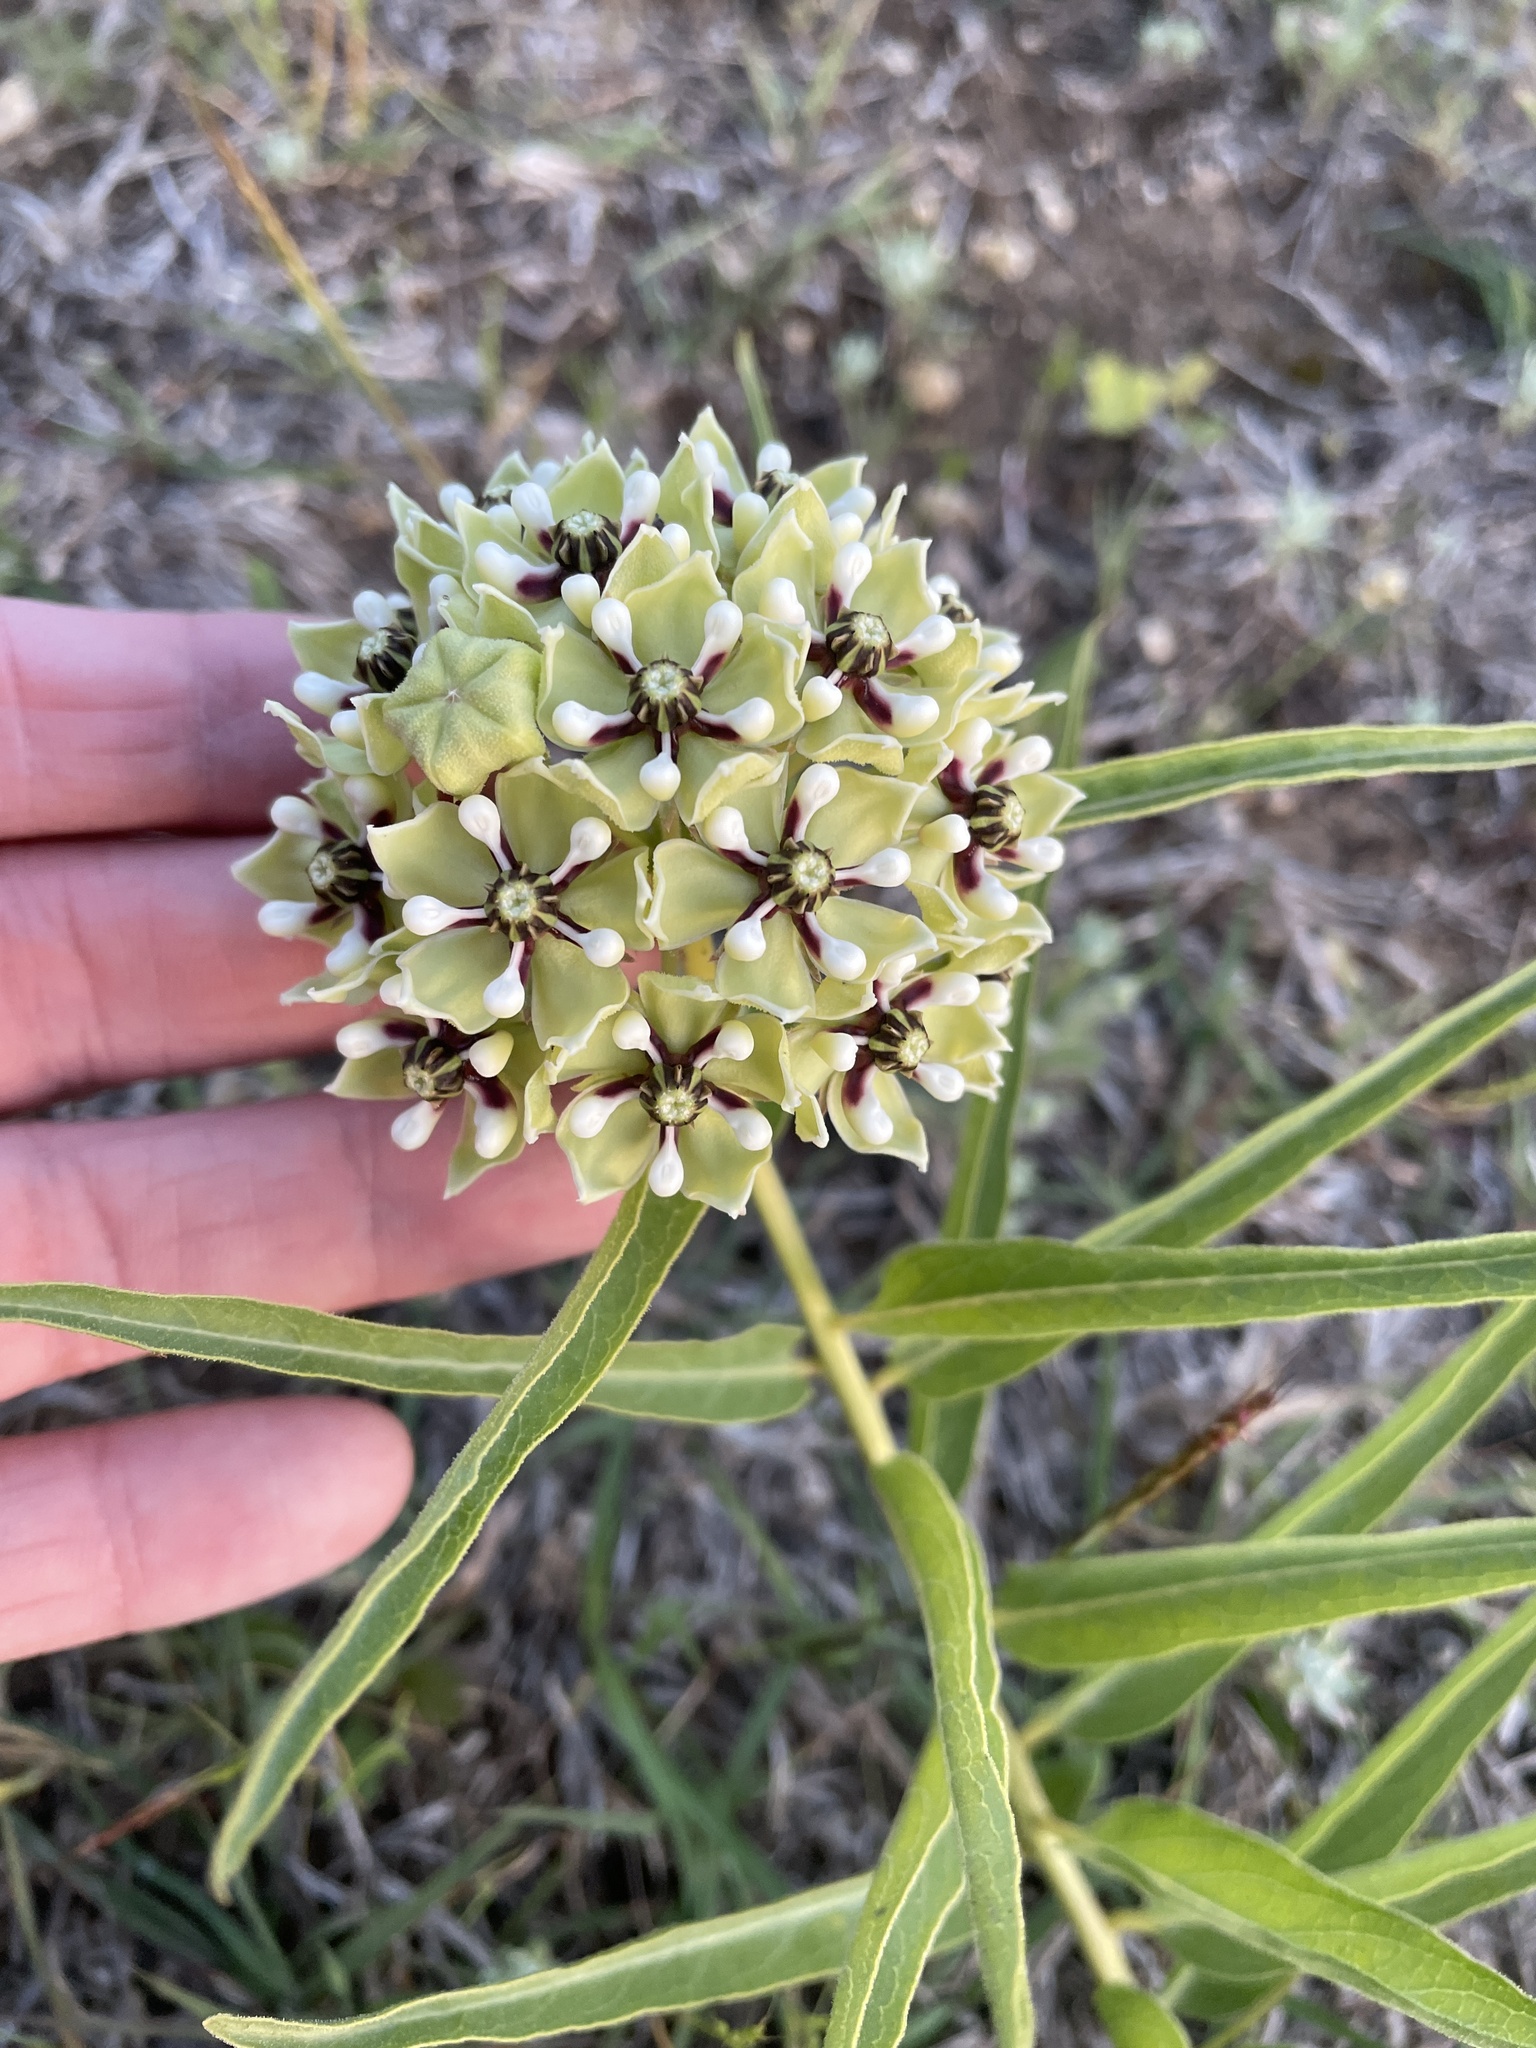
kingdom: Plantae
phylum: Tracheophyta
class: Magnoliopsida
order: Gentianales
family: Apocynaceae
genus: Asclepias
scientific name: Asclepias asperula
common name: Antelope horns
